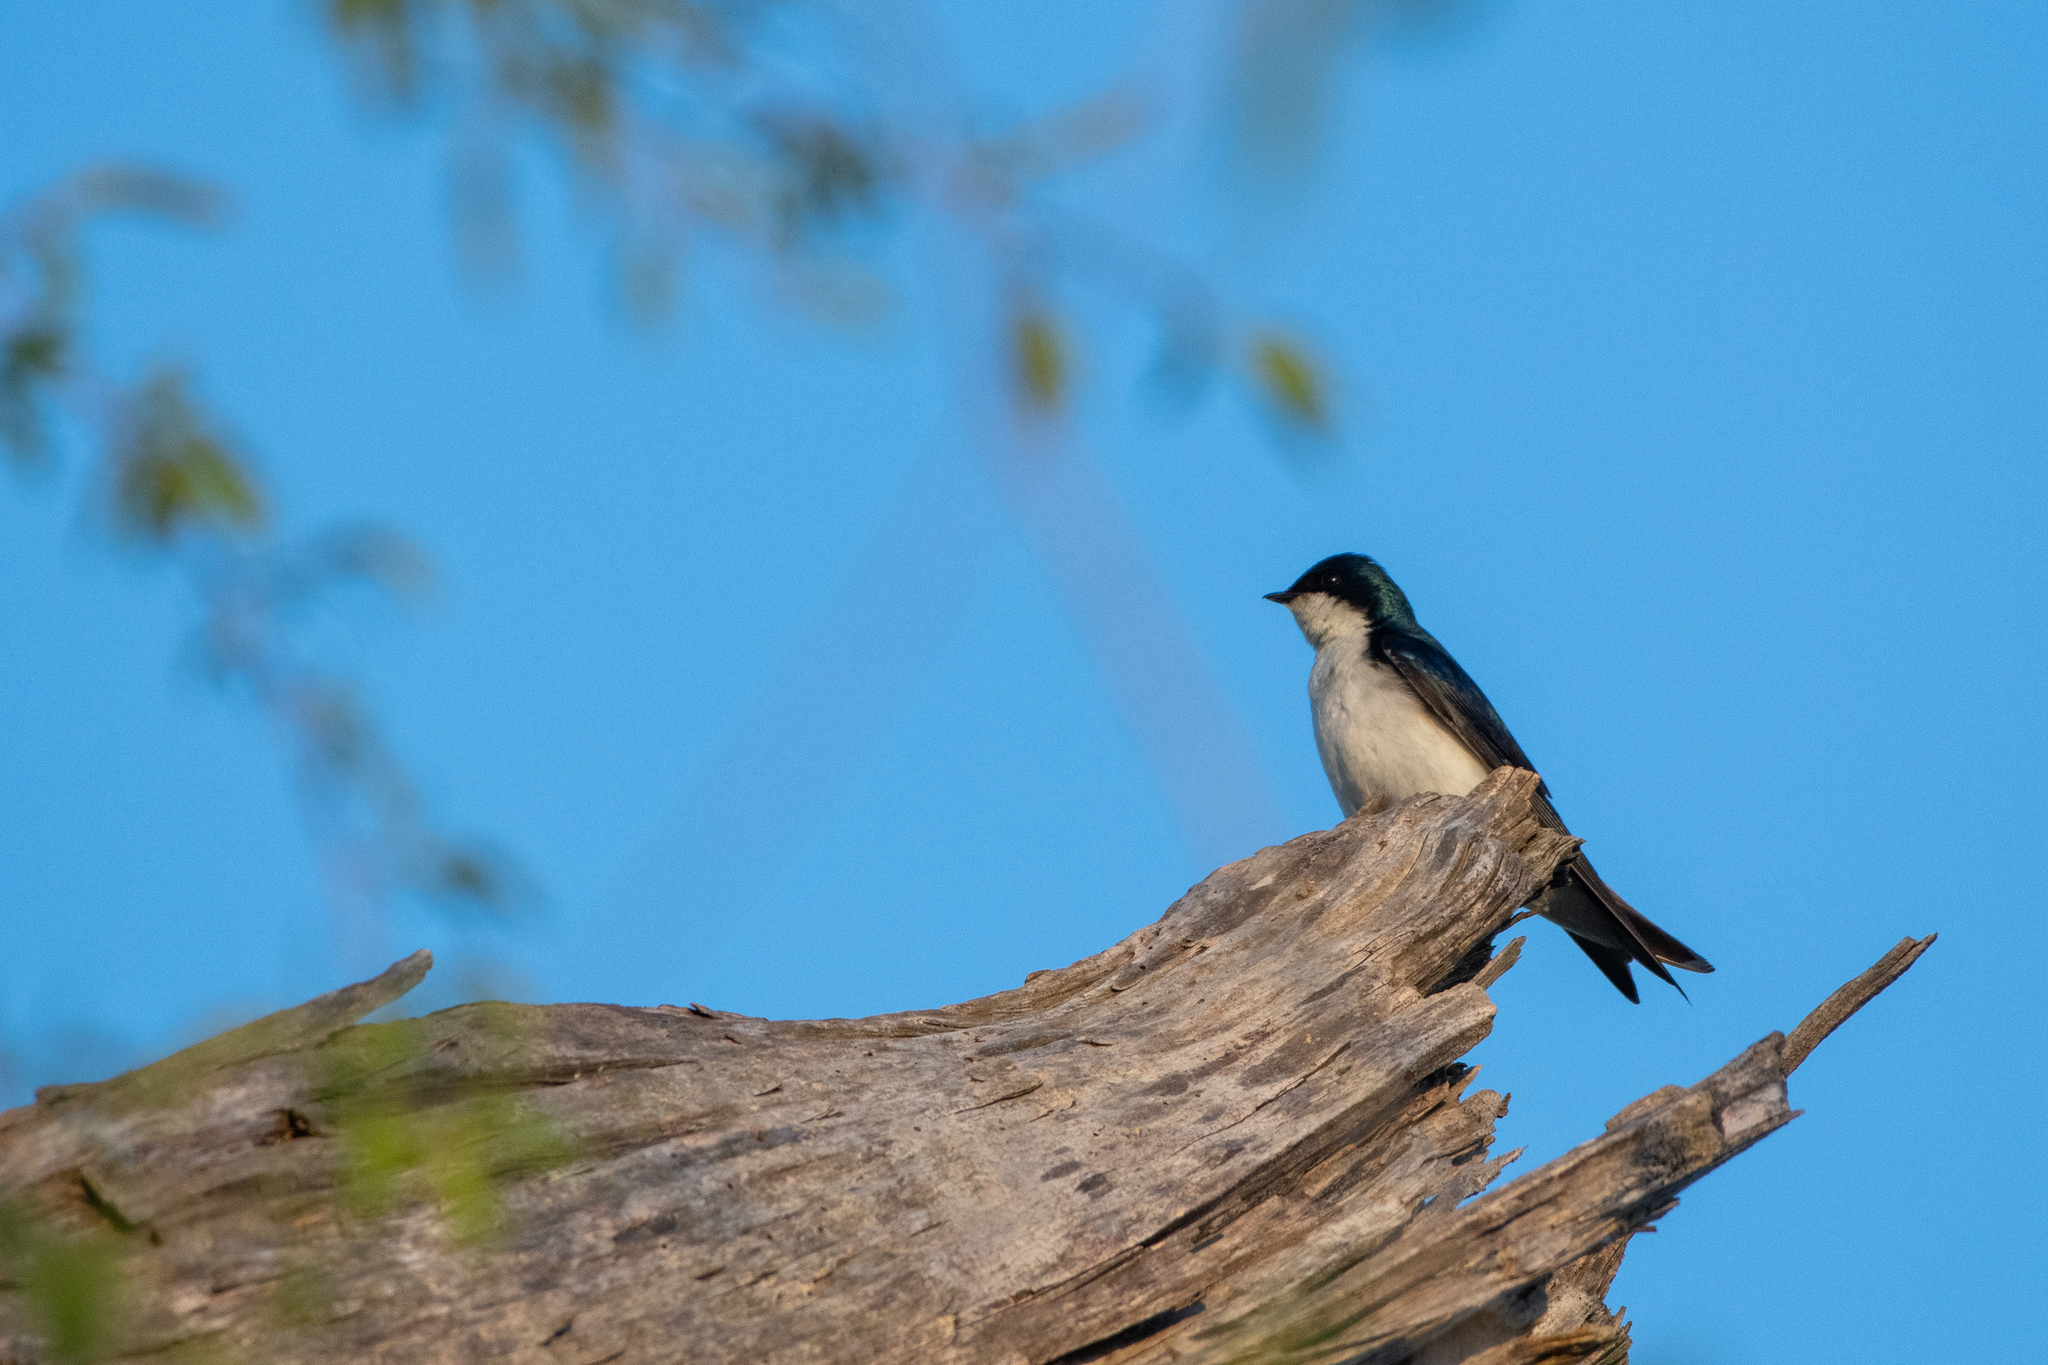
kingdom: Animalia
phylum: Chordata
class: Aves
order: Passeriformes
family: Hirundinidae
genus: Tachycineta
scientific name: Tachycineta bicolor
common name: Tree swallow
